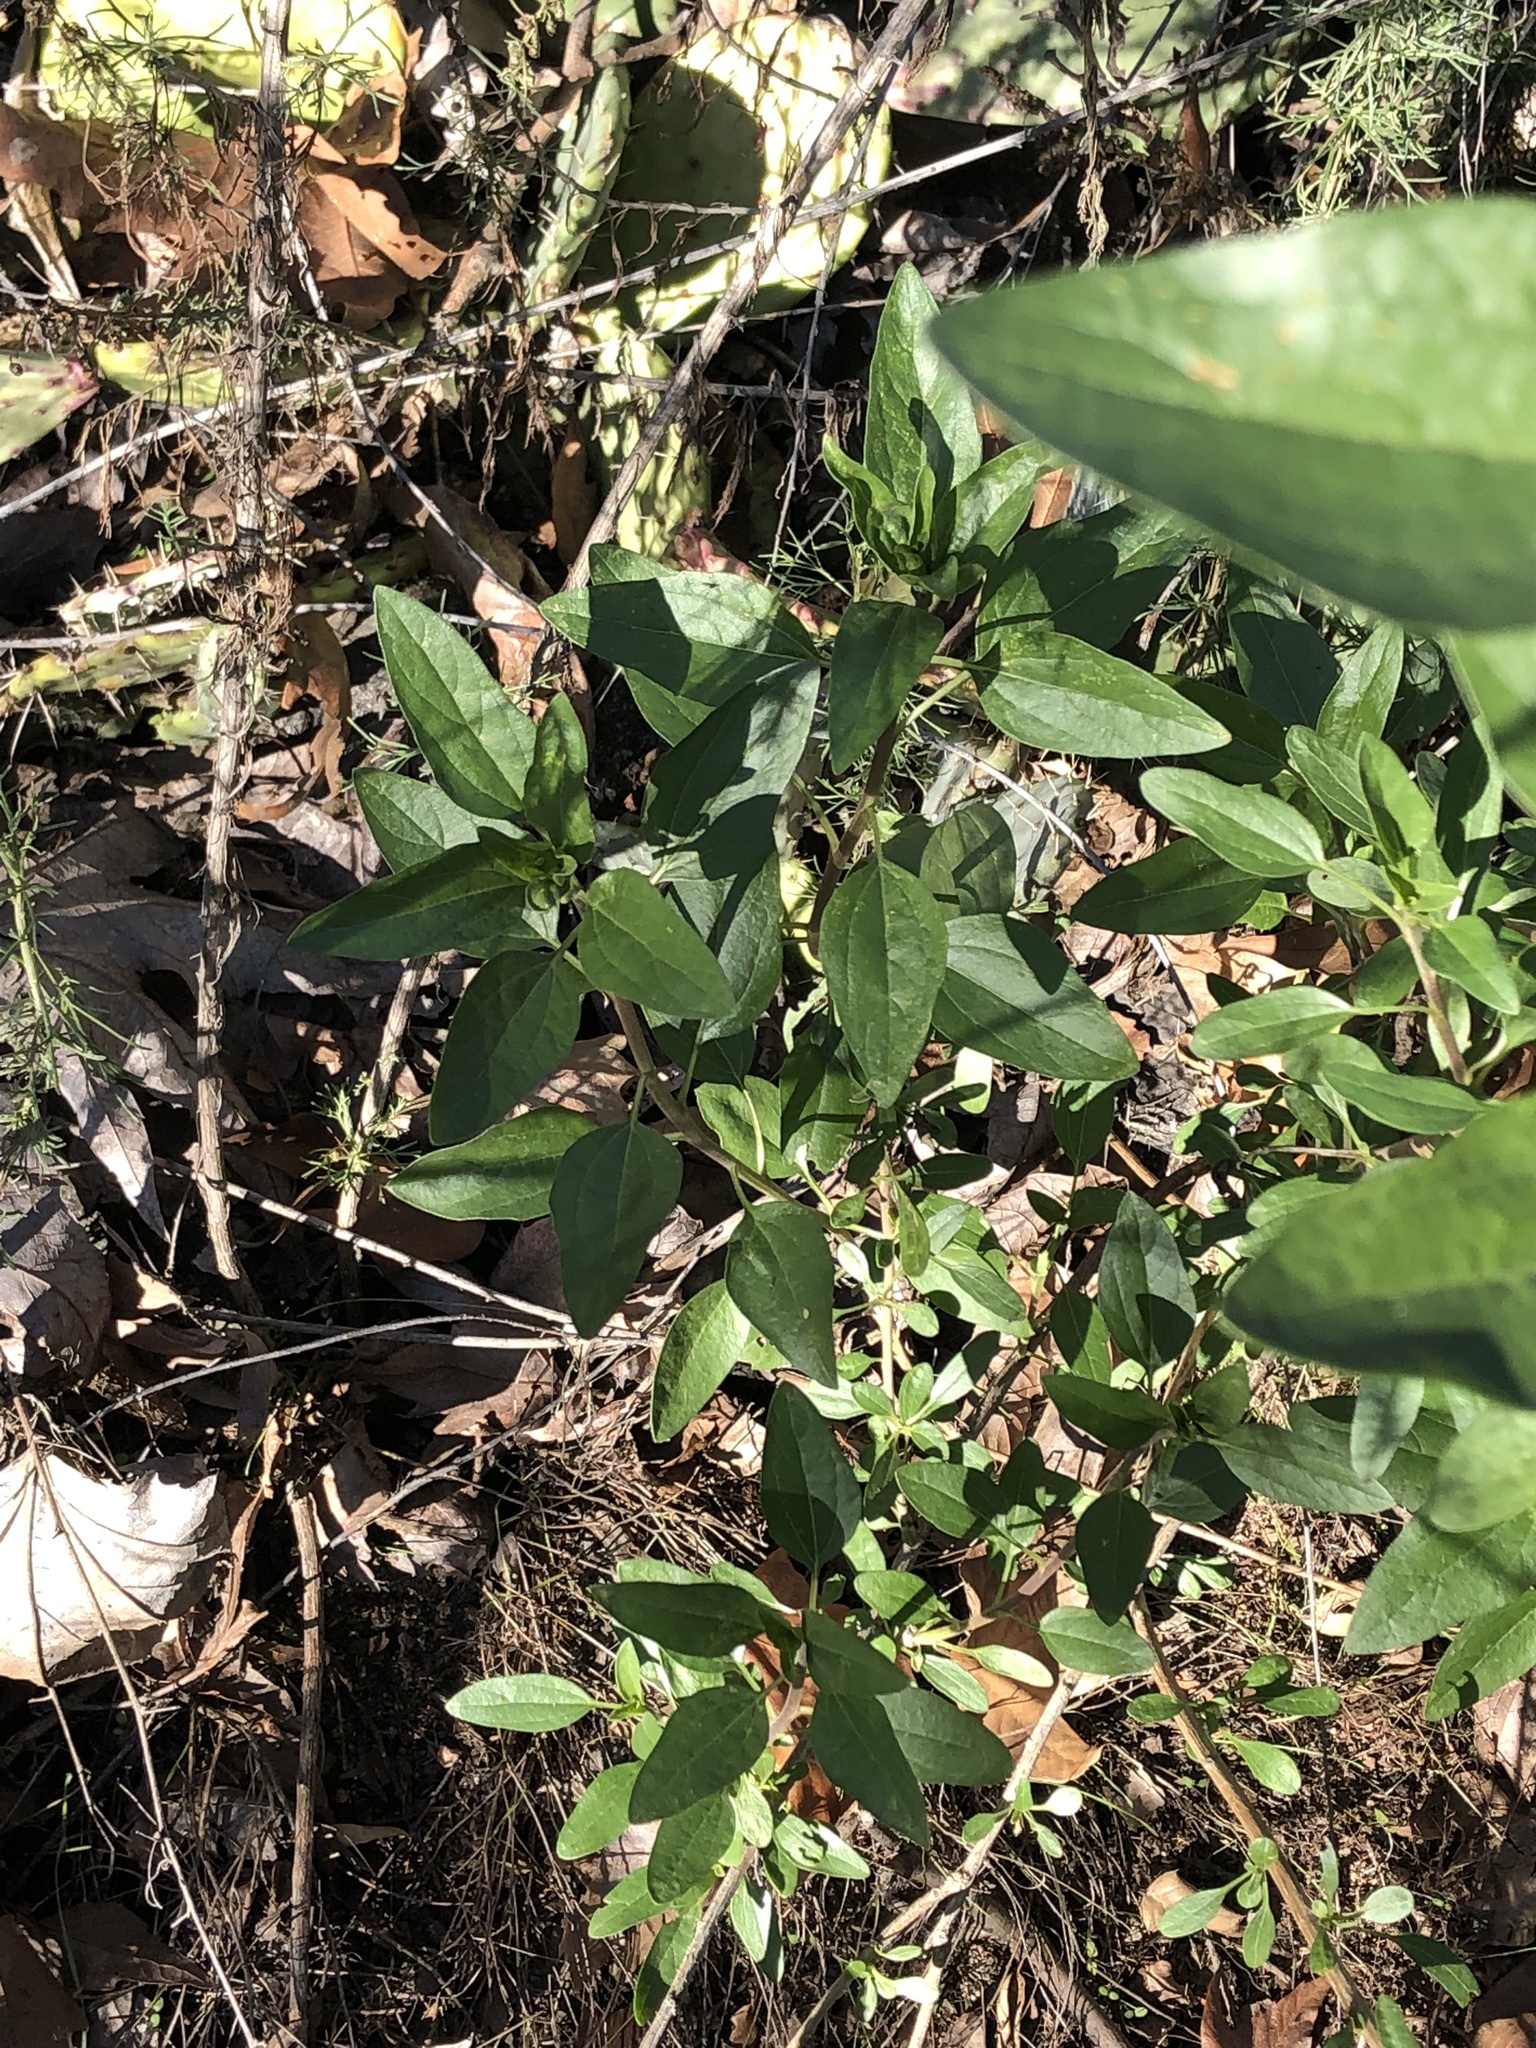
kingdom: Plantae
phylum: Tracheophyta
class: Magnoliopsida
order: Asterales
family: Asteraceae
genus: Encelia
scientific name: Encelia californica
